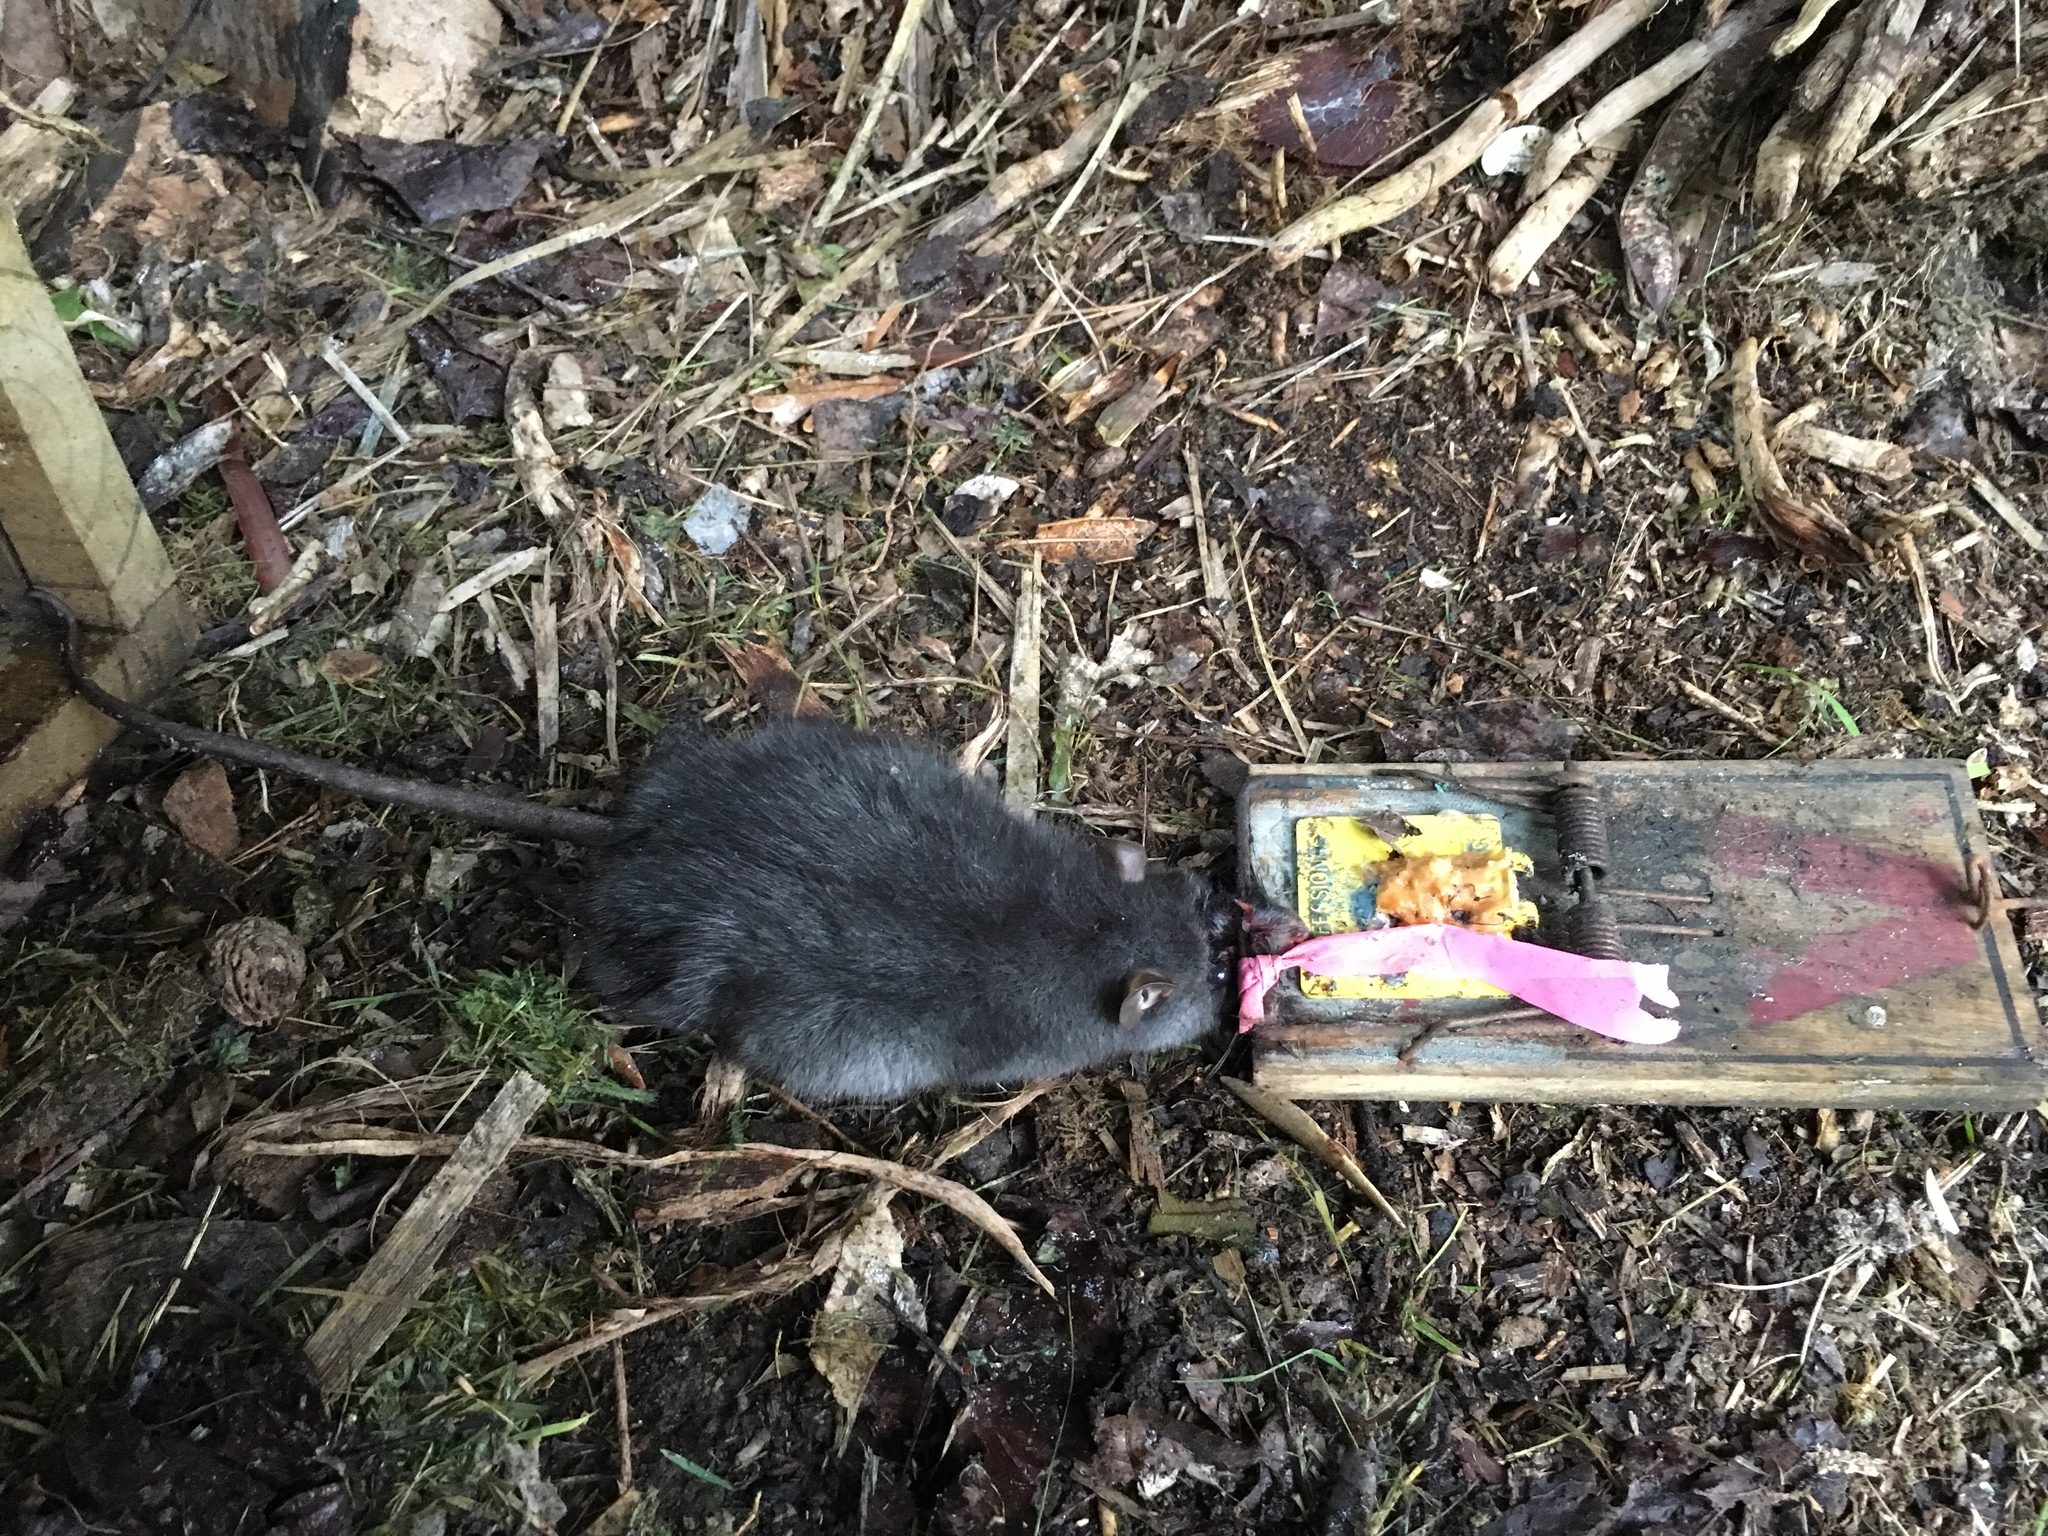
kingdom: Animalia
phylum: Chordata
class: Mammalia
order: Rodentia
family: Muridae
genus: Rattus
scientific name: Rattus rattus
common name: Black rat
